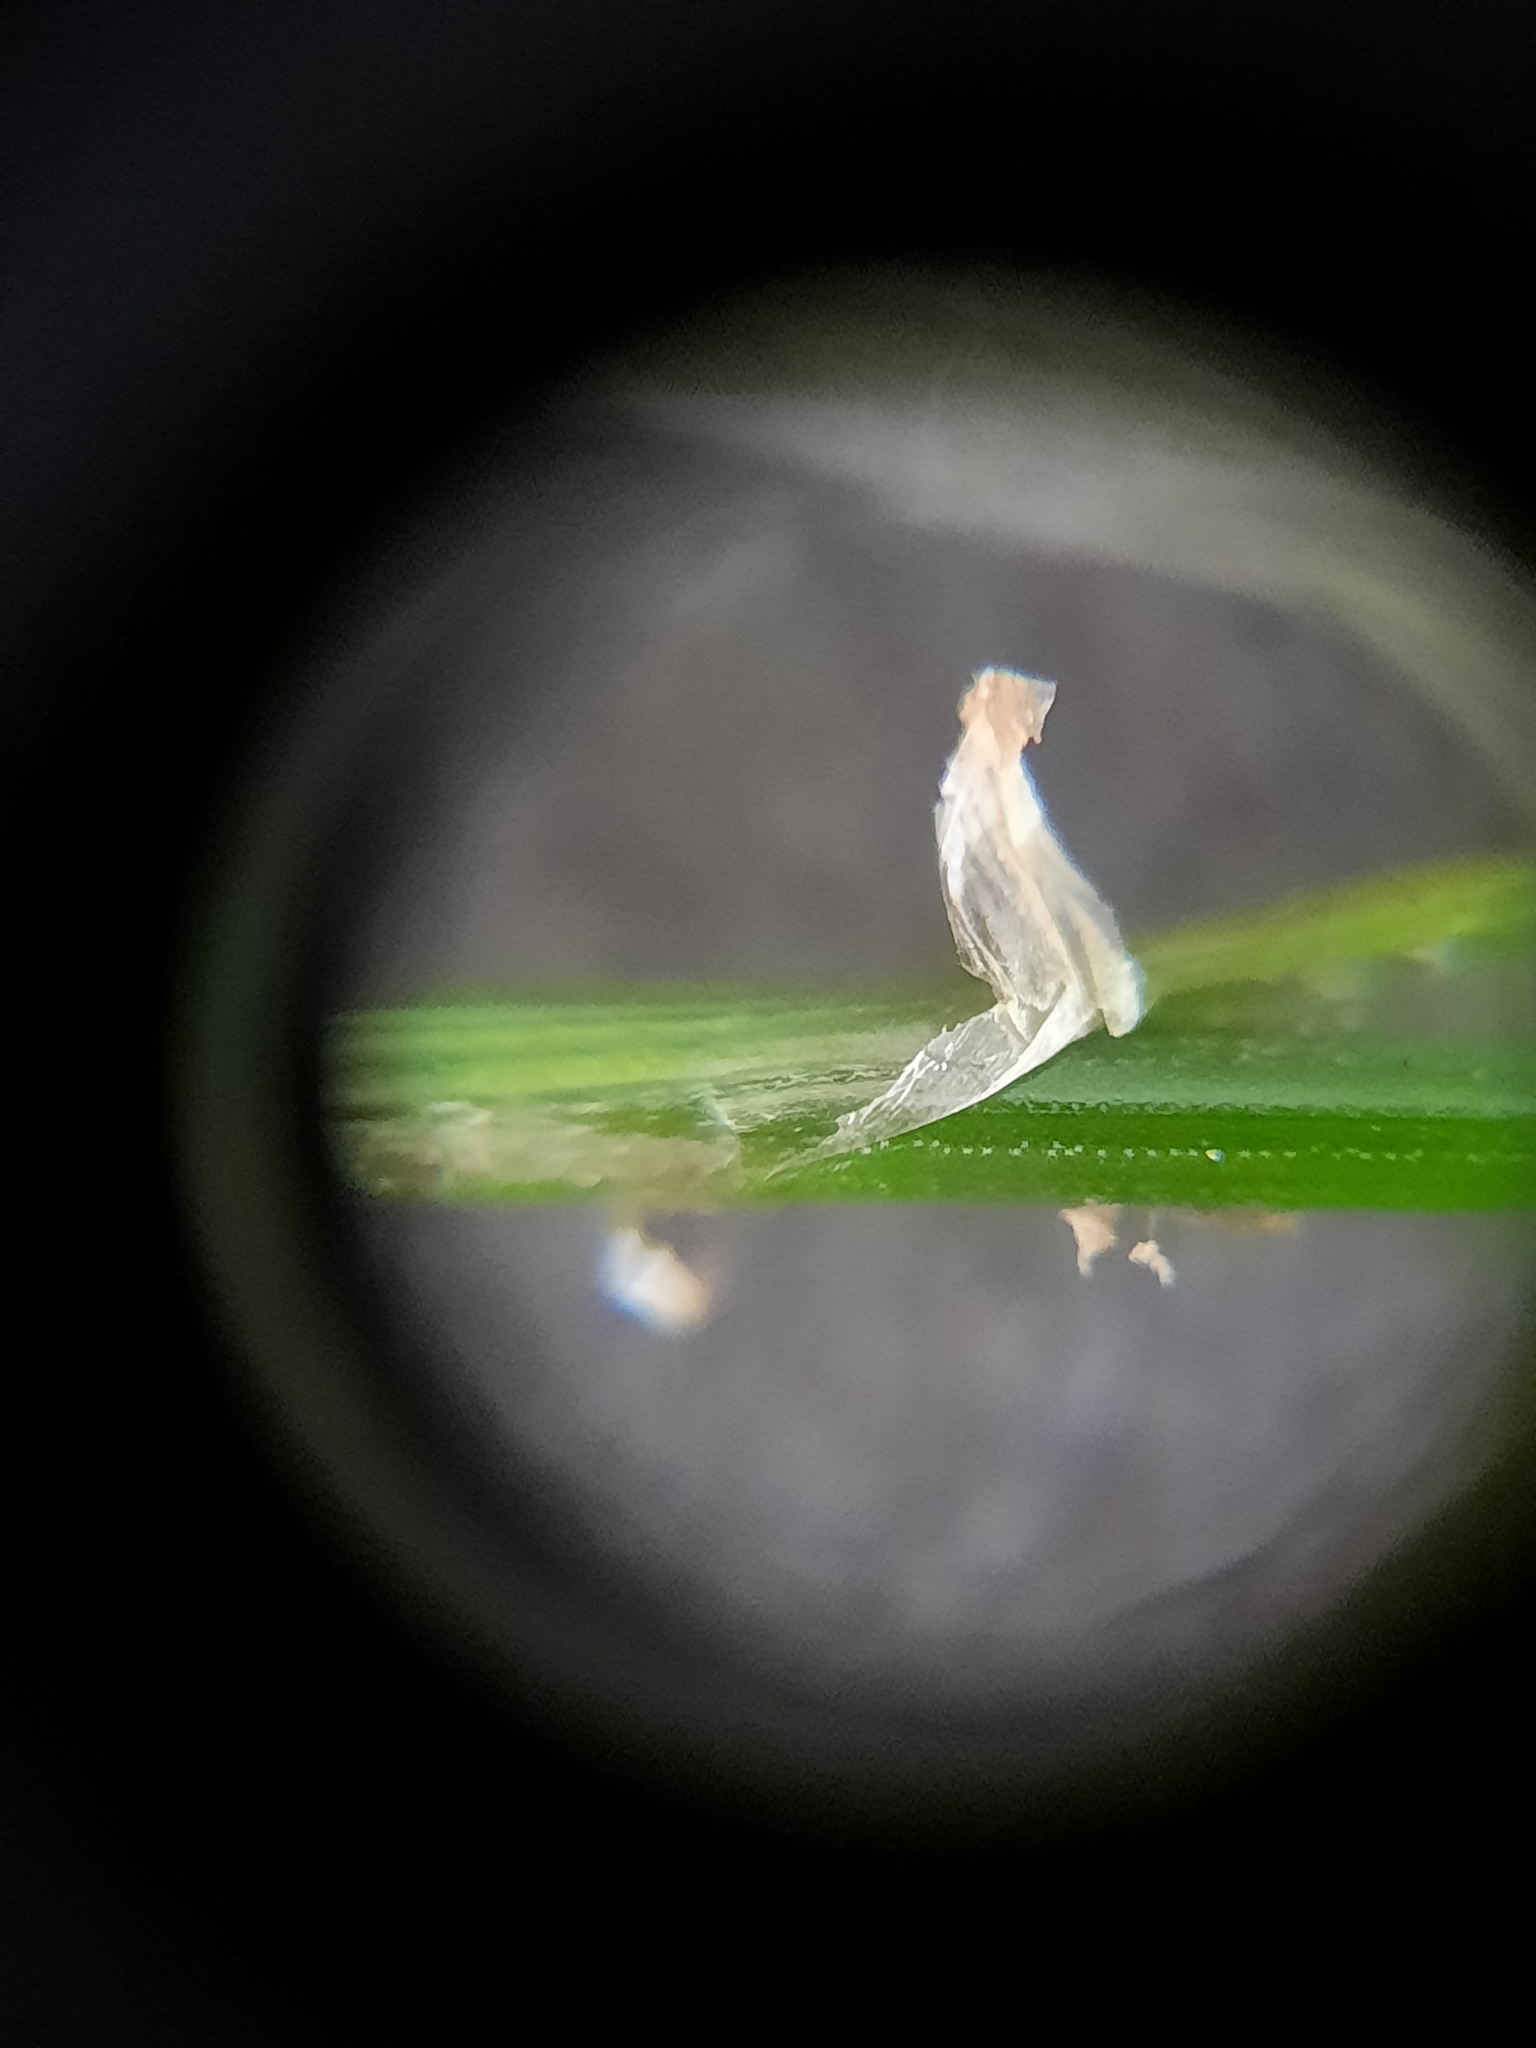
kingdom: Plantae
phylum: Tracheophyta
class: Liliopsida
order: Poales
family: Juncaceae
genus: Juncus
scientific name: Juncus tenuis
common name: Slender rush
